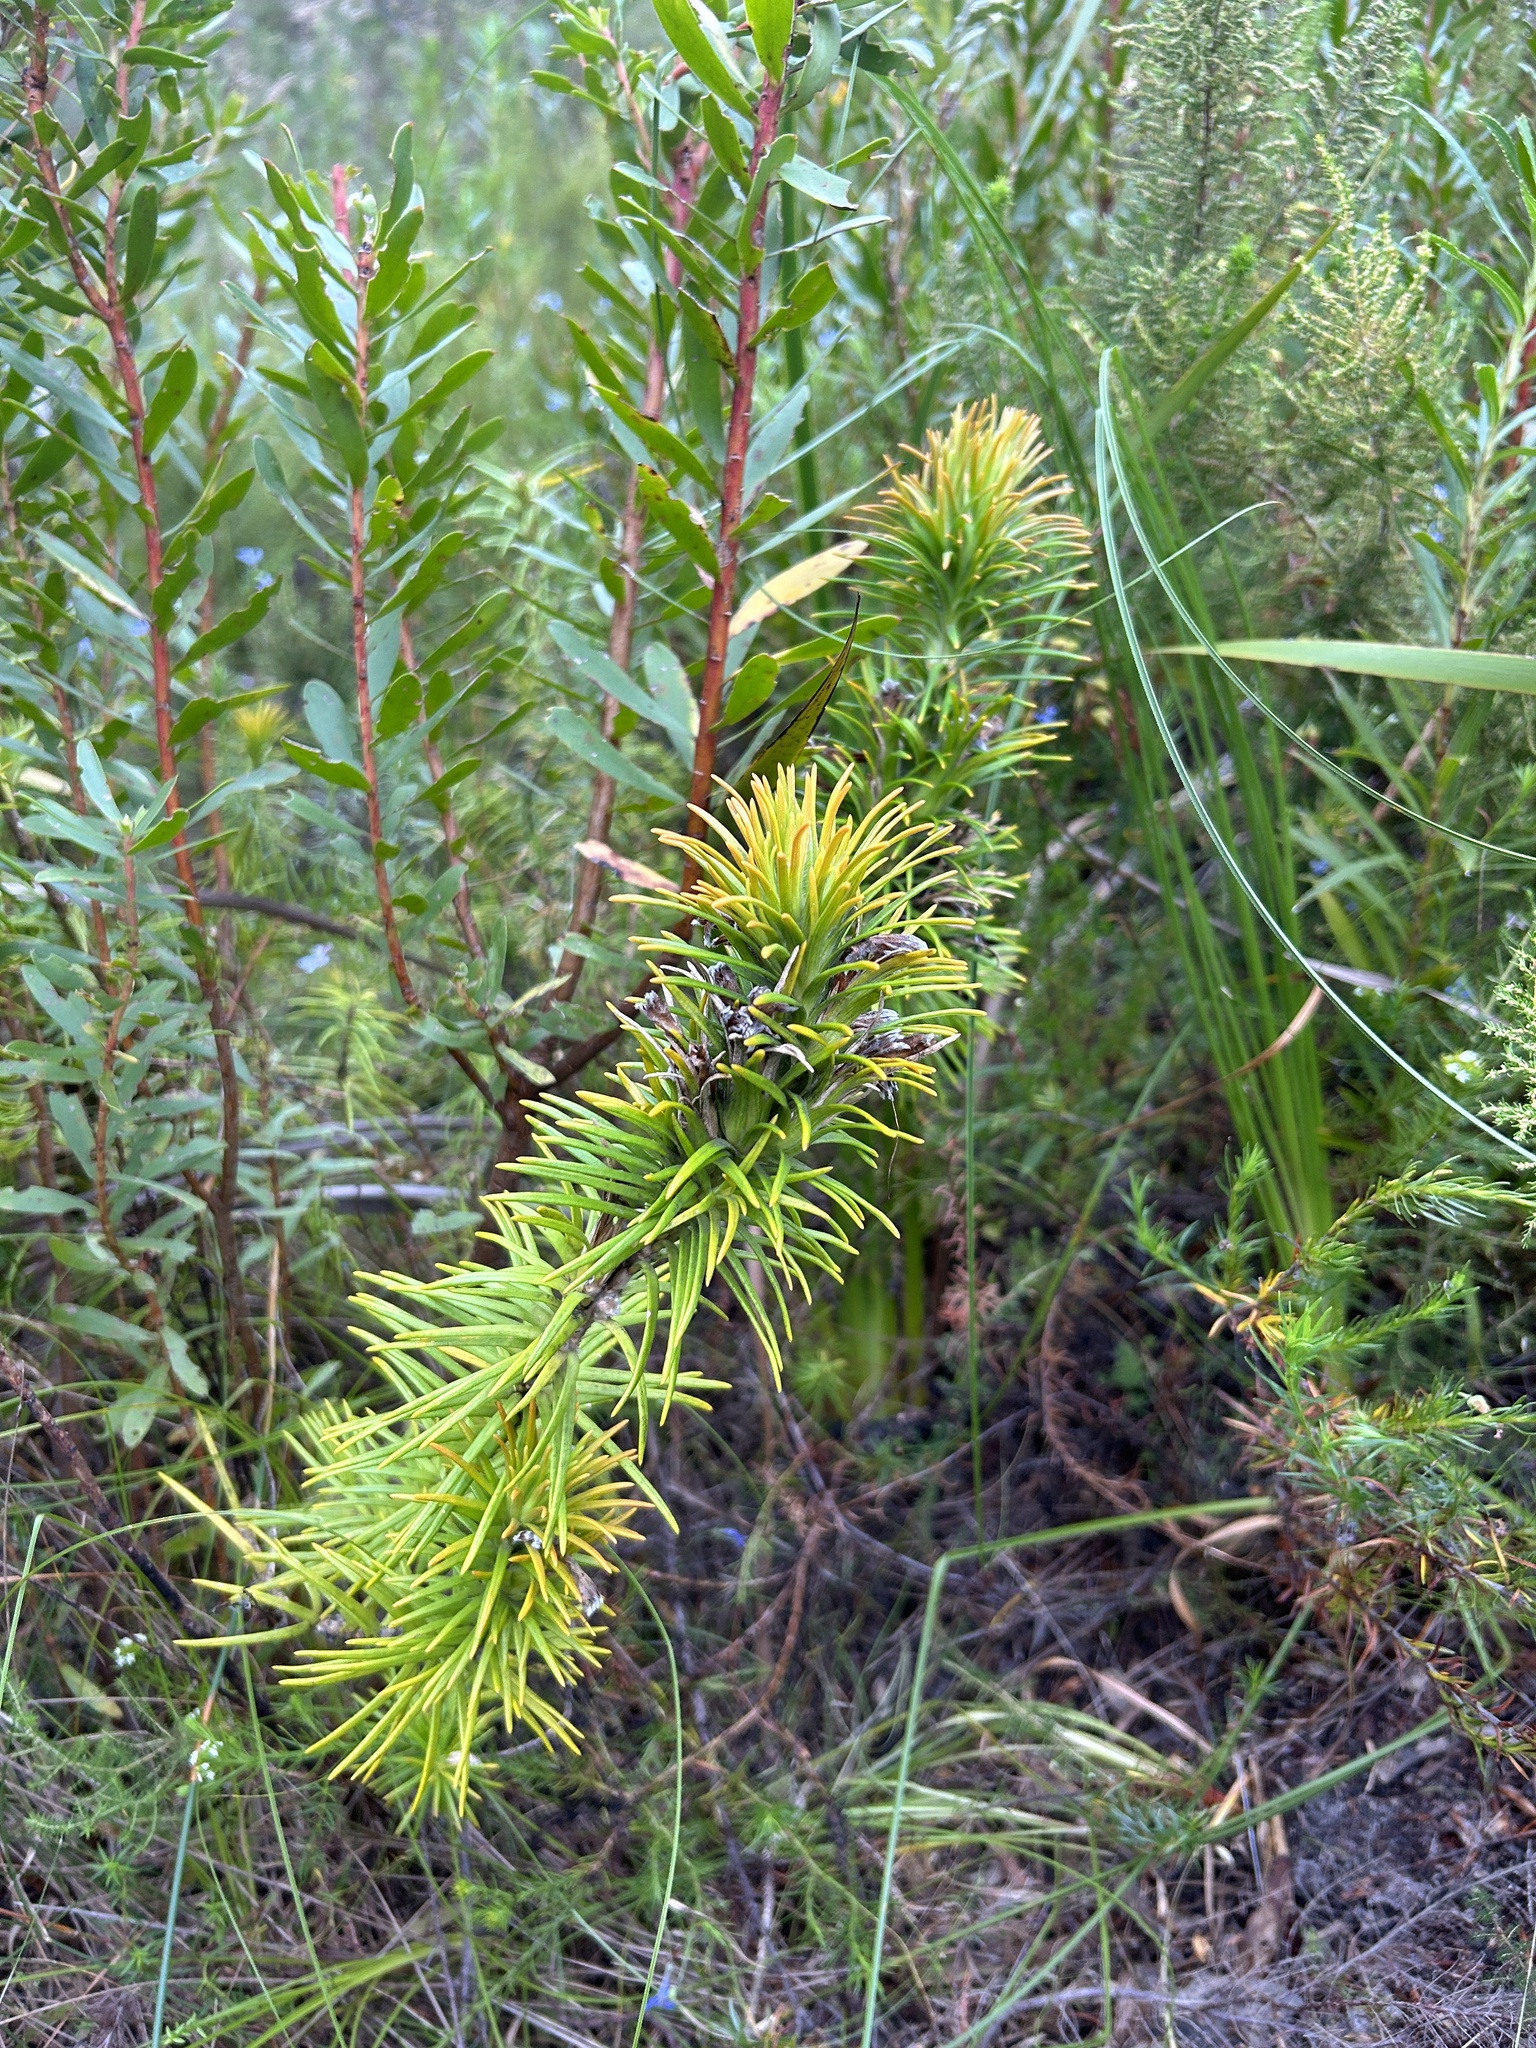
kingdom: Plantae
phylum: Tracheophyta
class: Magnoliopsida
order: Lamiales
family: Stilbaceae
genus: Retzia
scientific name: Retzia capensis
